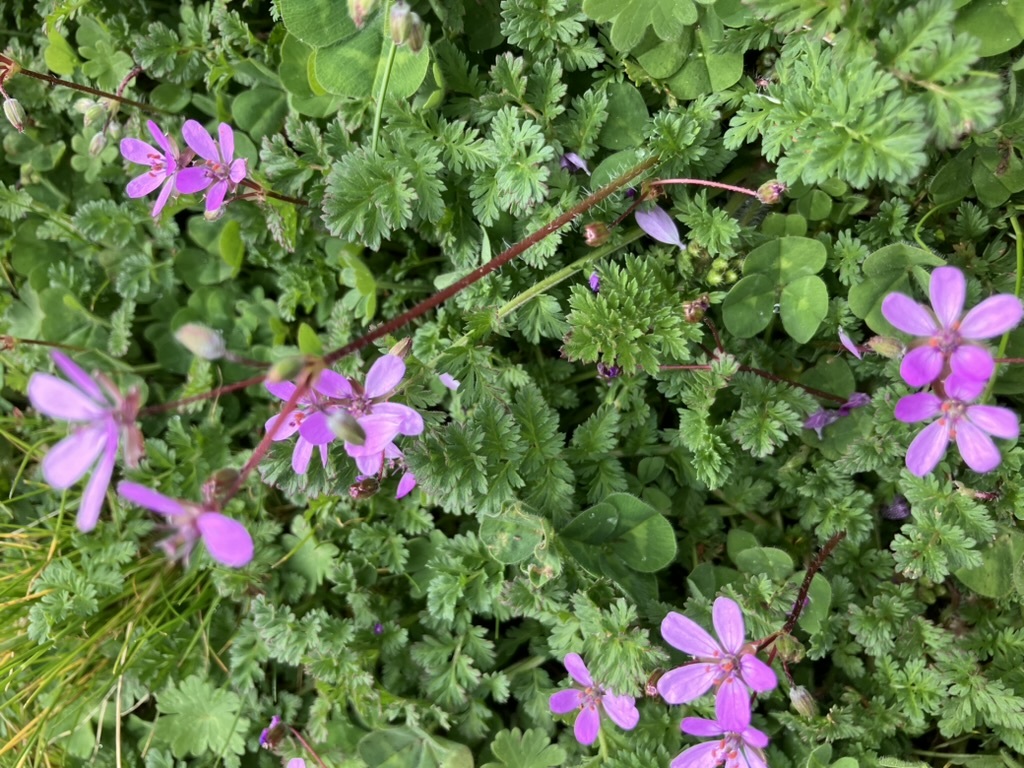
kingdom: Plantae
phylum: Tracheophyta
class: Magnoliopsida
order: Geraniales
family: Geraniaceae
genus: Erodium
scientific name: Erodium cicutarium
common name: Common stork's-bill
